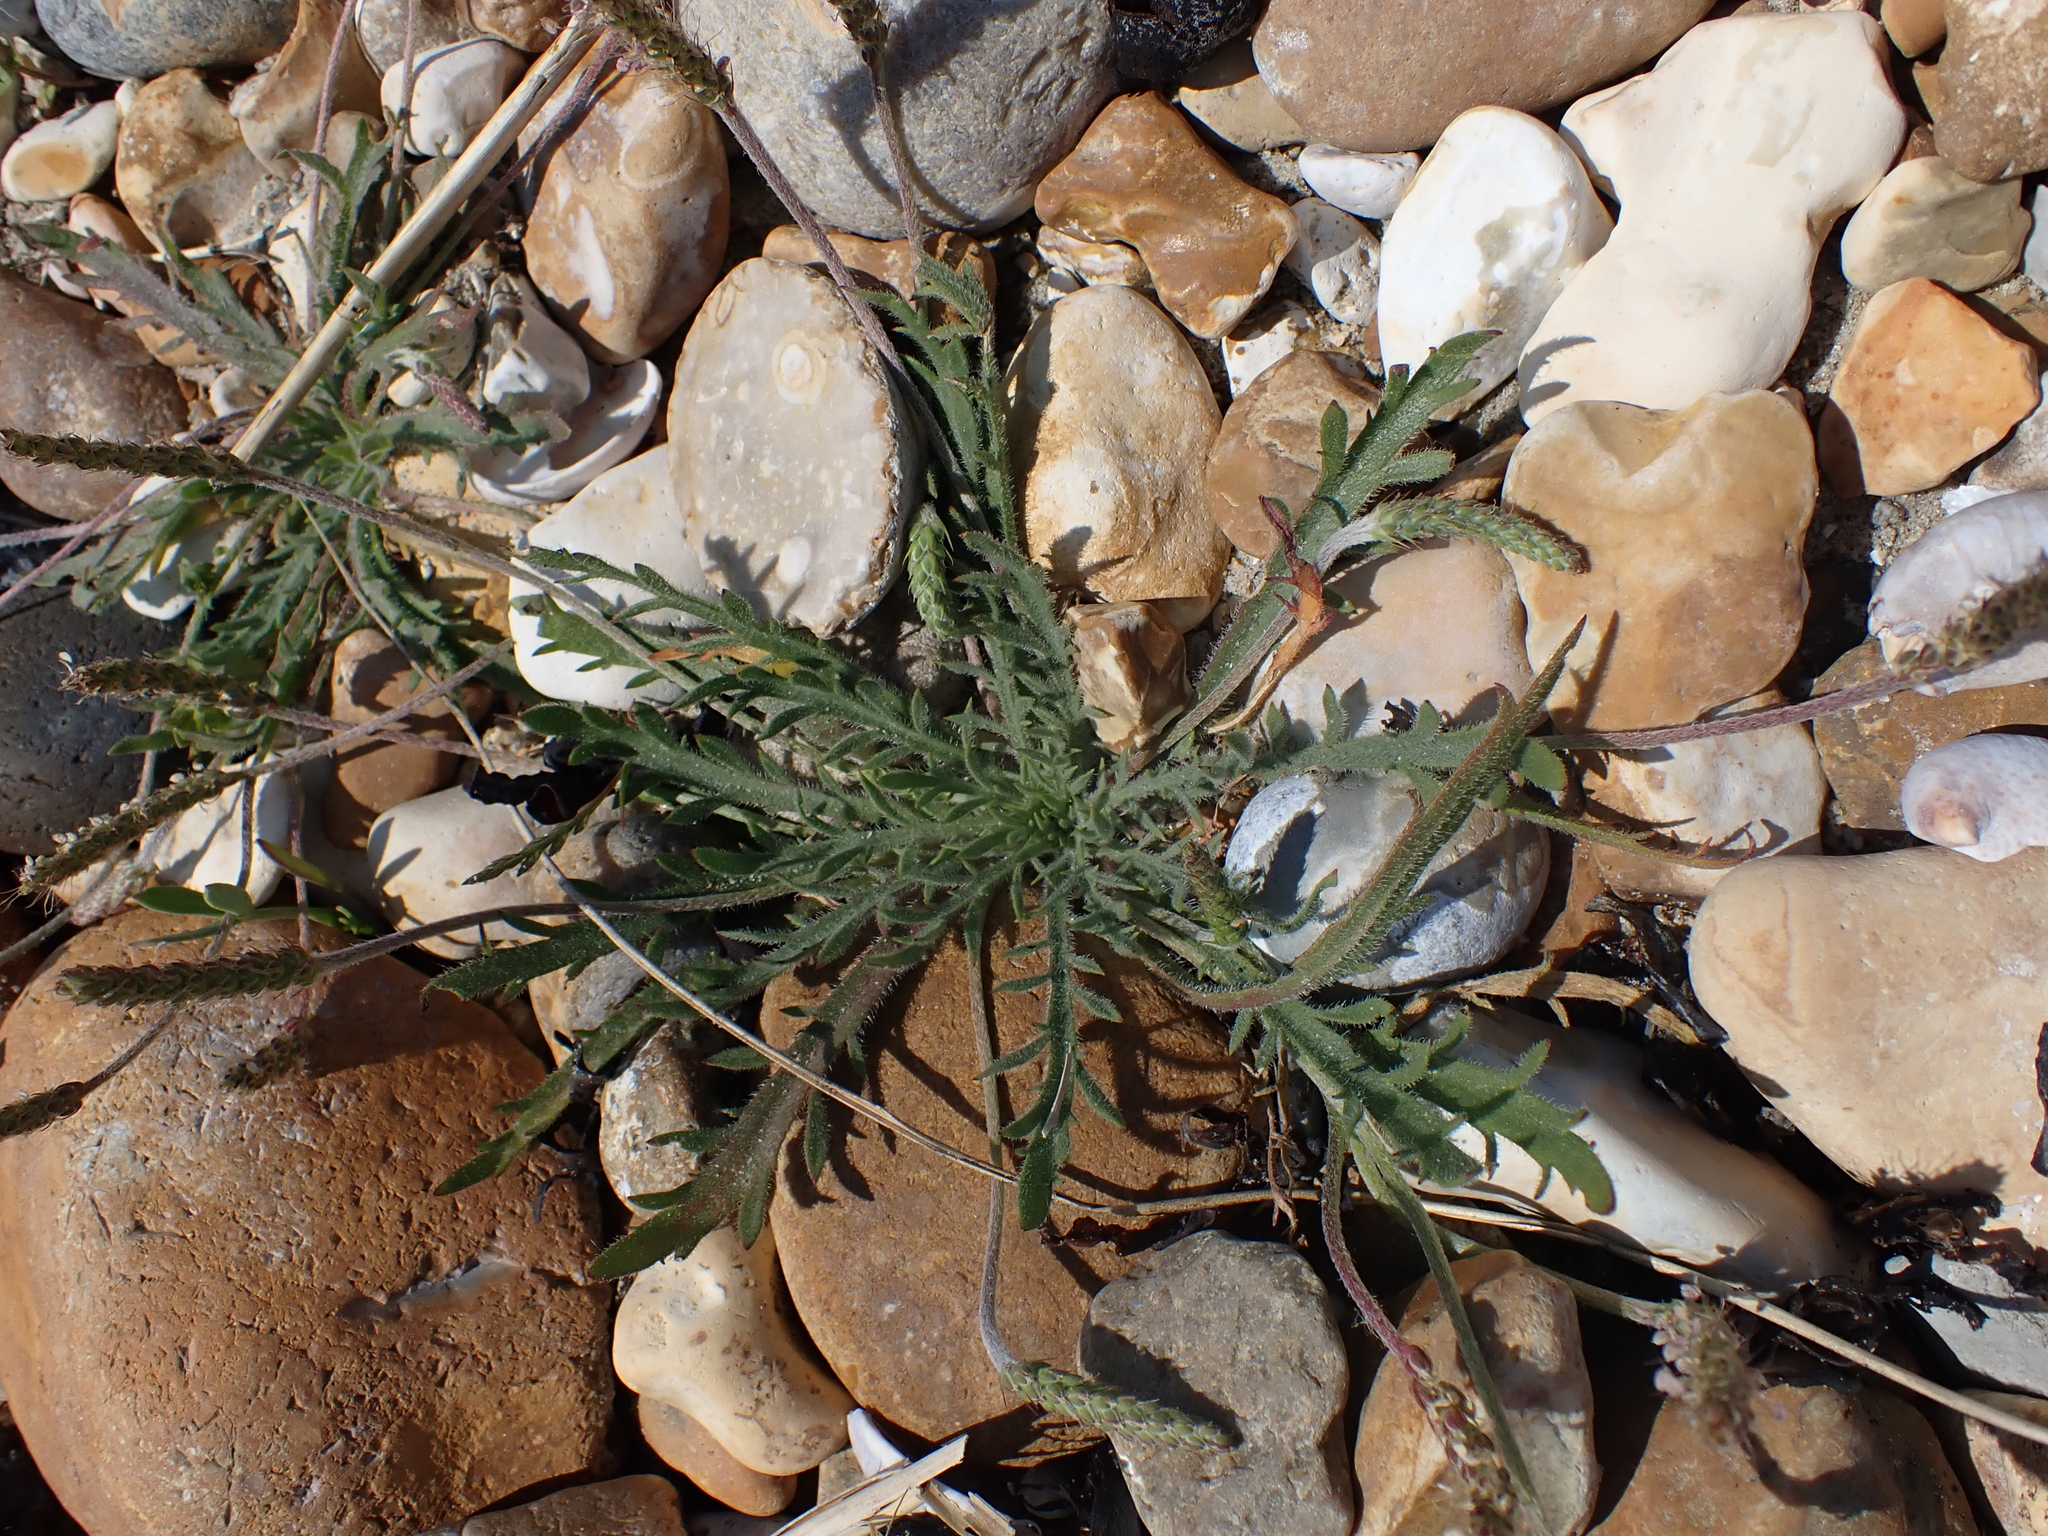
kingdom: Plantae
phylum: Tracheophyta
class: Magnoliopsida
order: Lamiales
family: Plantaginaceae
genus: Plantago
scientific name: Plantago coronopus
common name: Buck's-horn plantain
